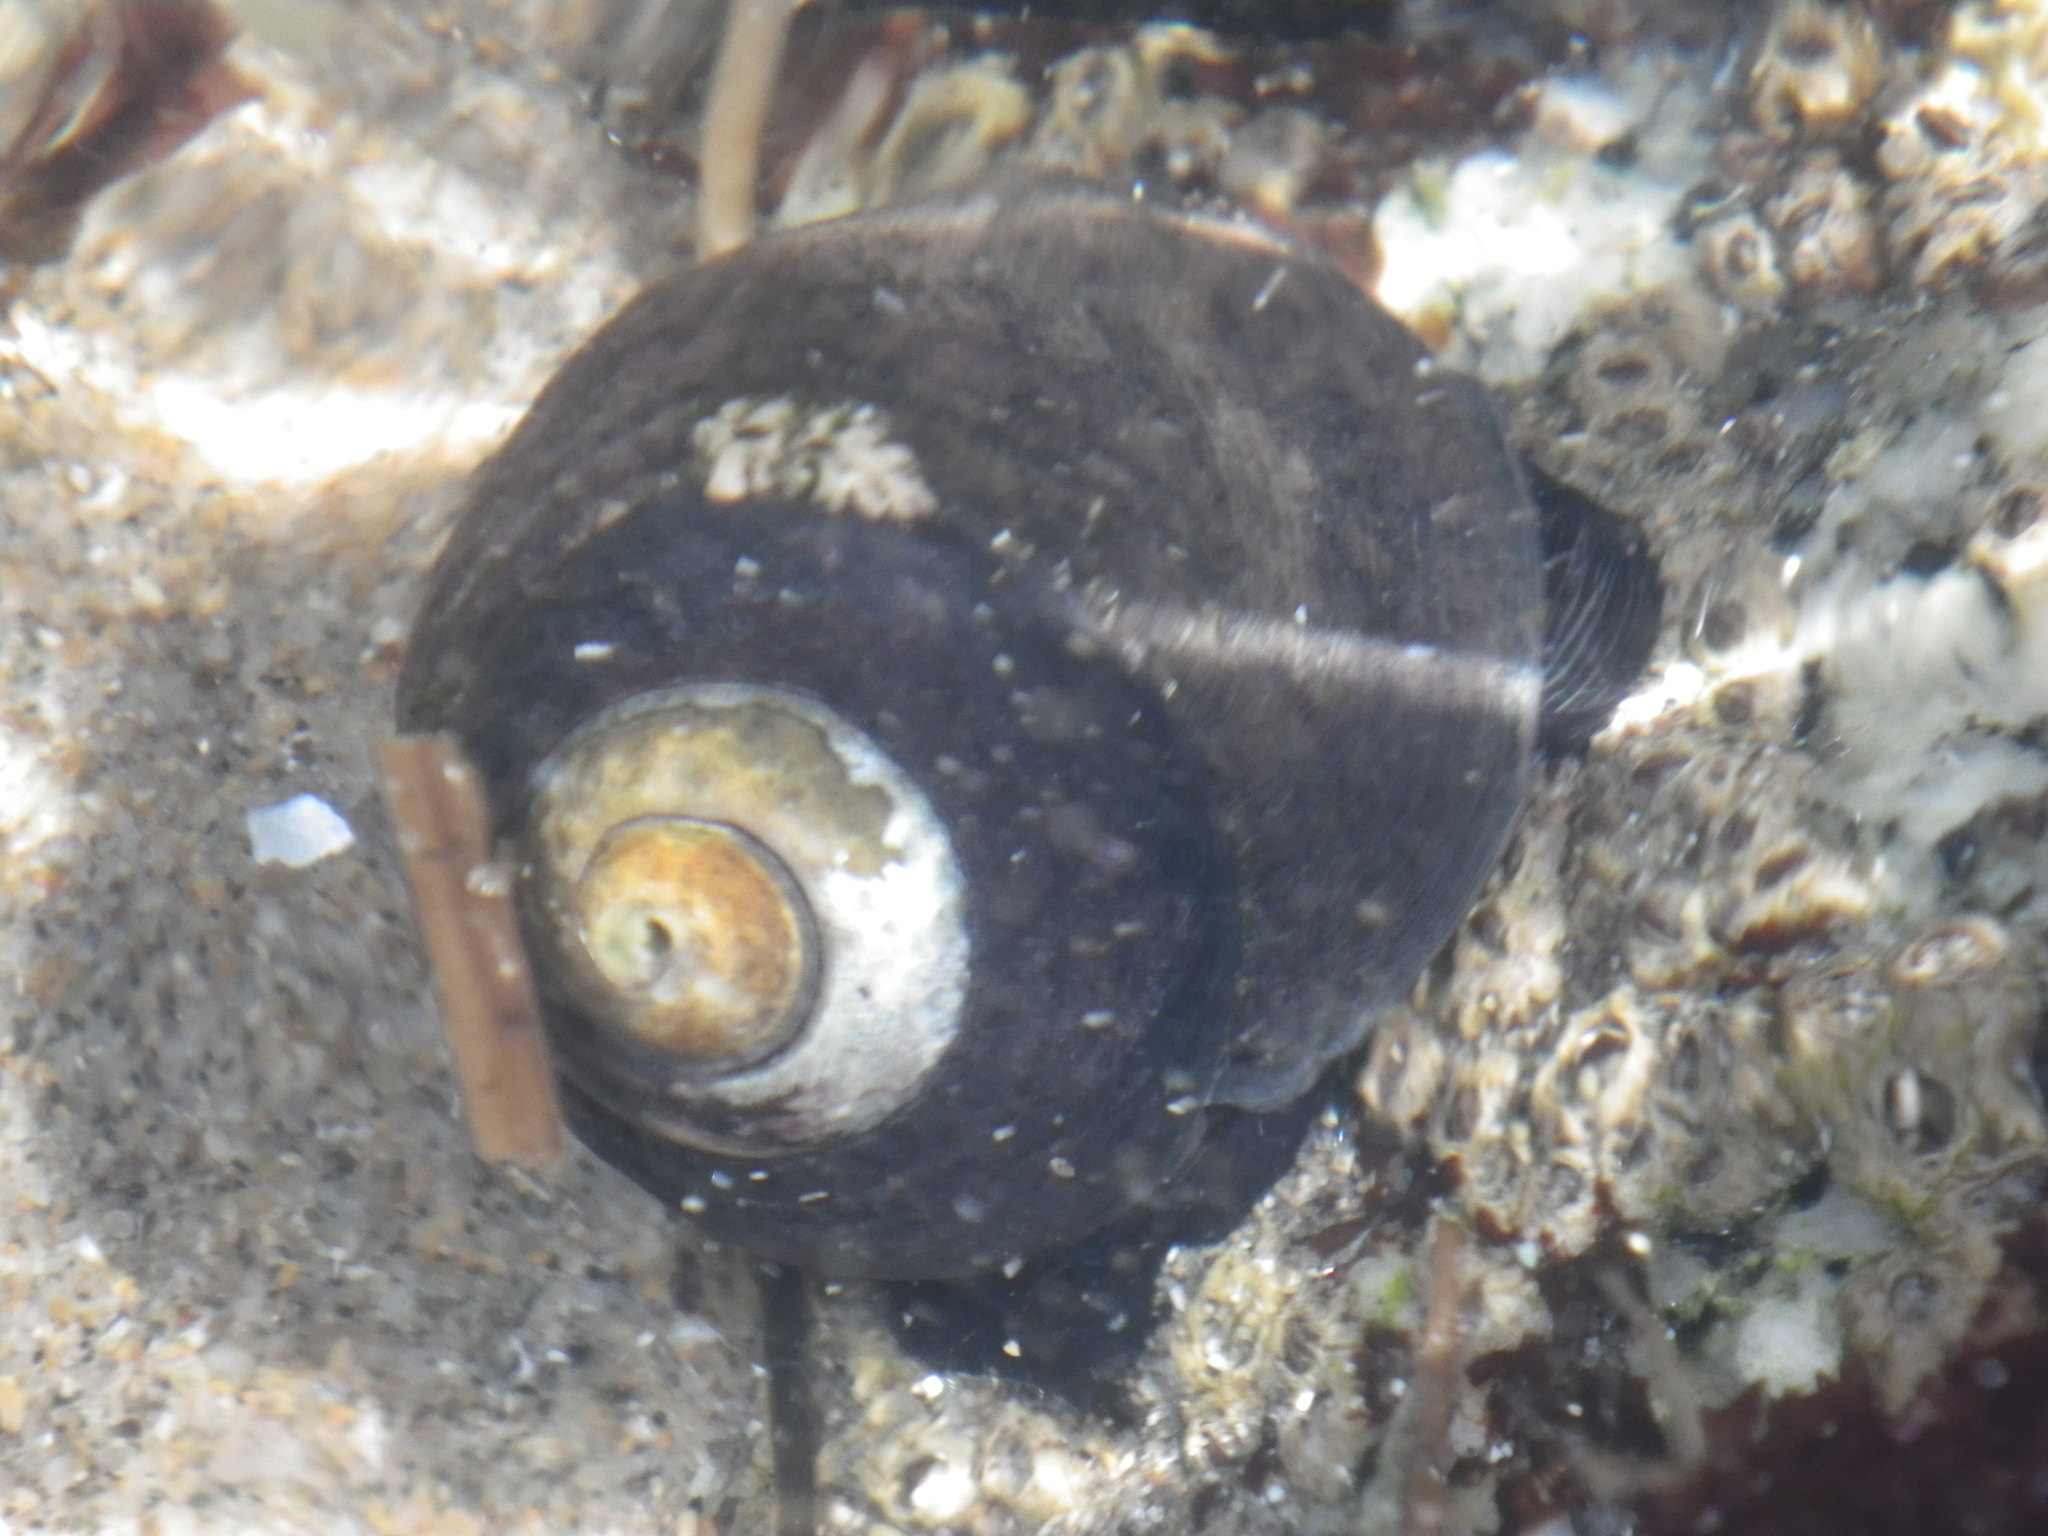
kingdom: Animalia
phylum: Mollusca
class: Gastropoda
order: Trochida
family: Tegulidae
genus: Tegula
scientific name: Tegula funebralis
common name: Black tegula
